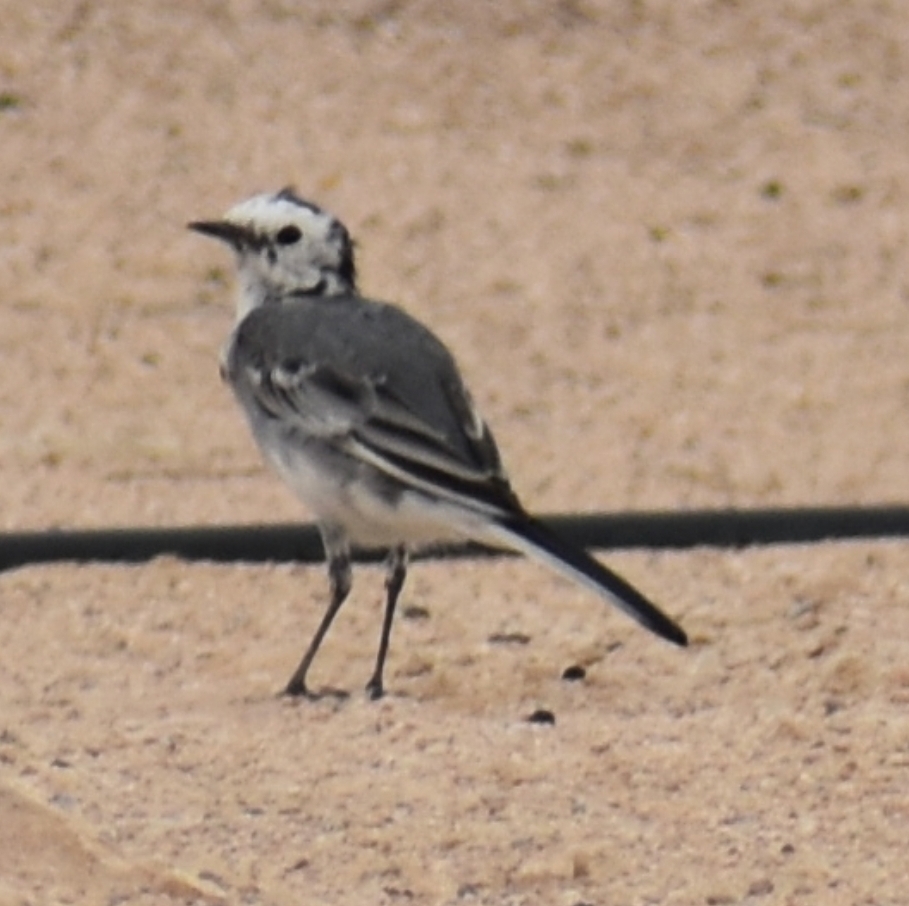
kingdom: Animalia
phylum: Chordata
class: Aves
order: Passeriformes
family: Motacillidae
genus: Motacilla
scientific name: Motacilla alba
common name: White wagtail
